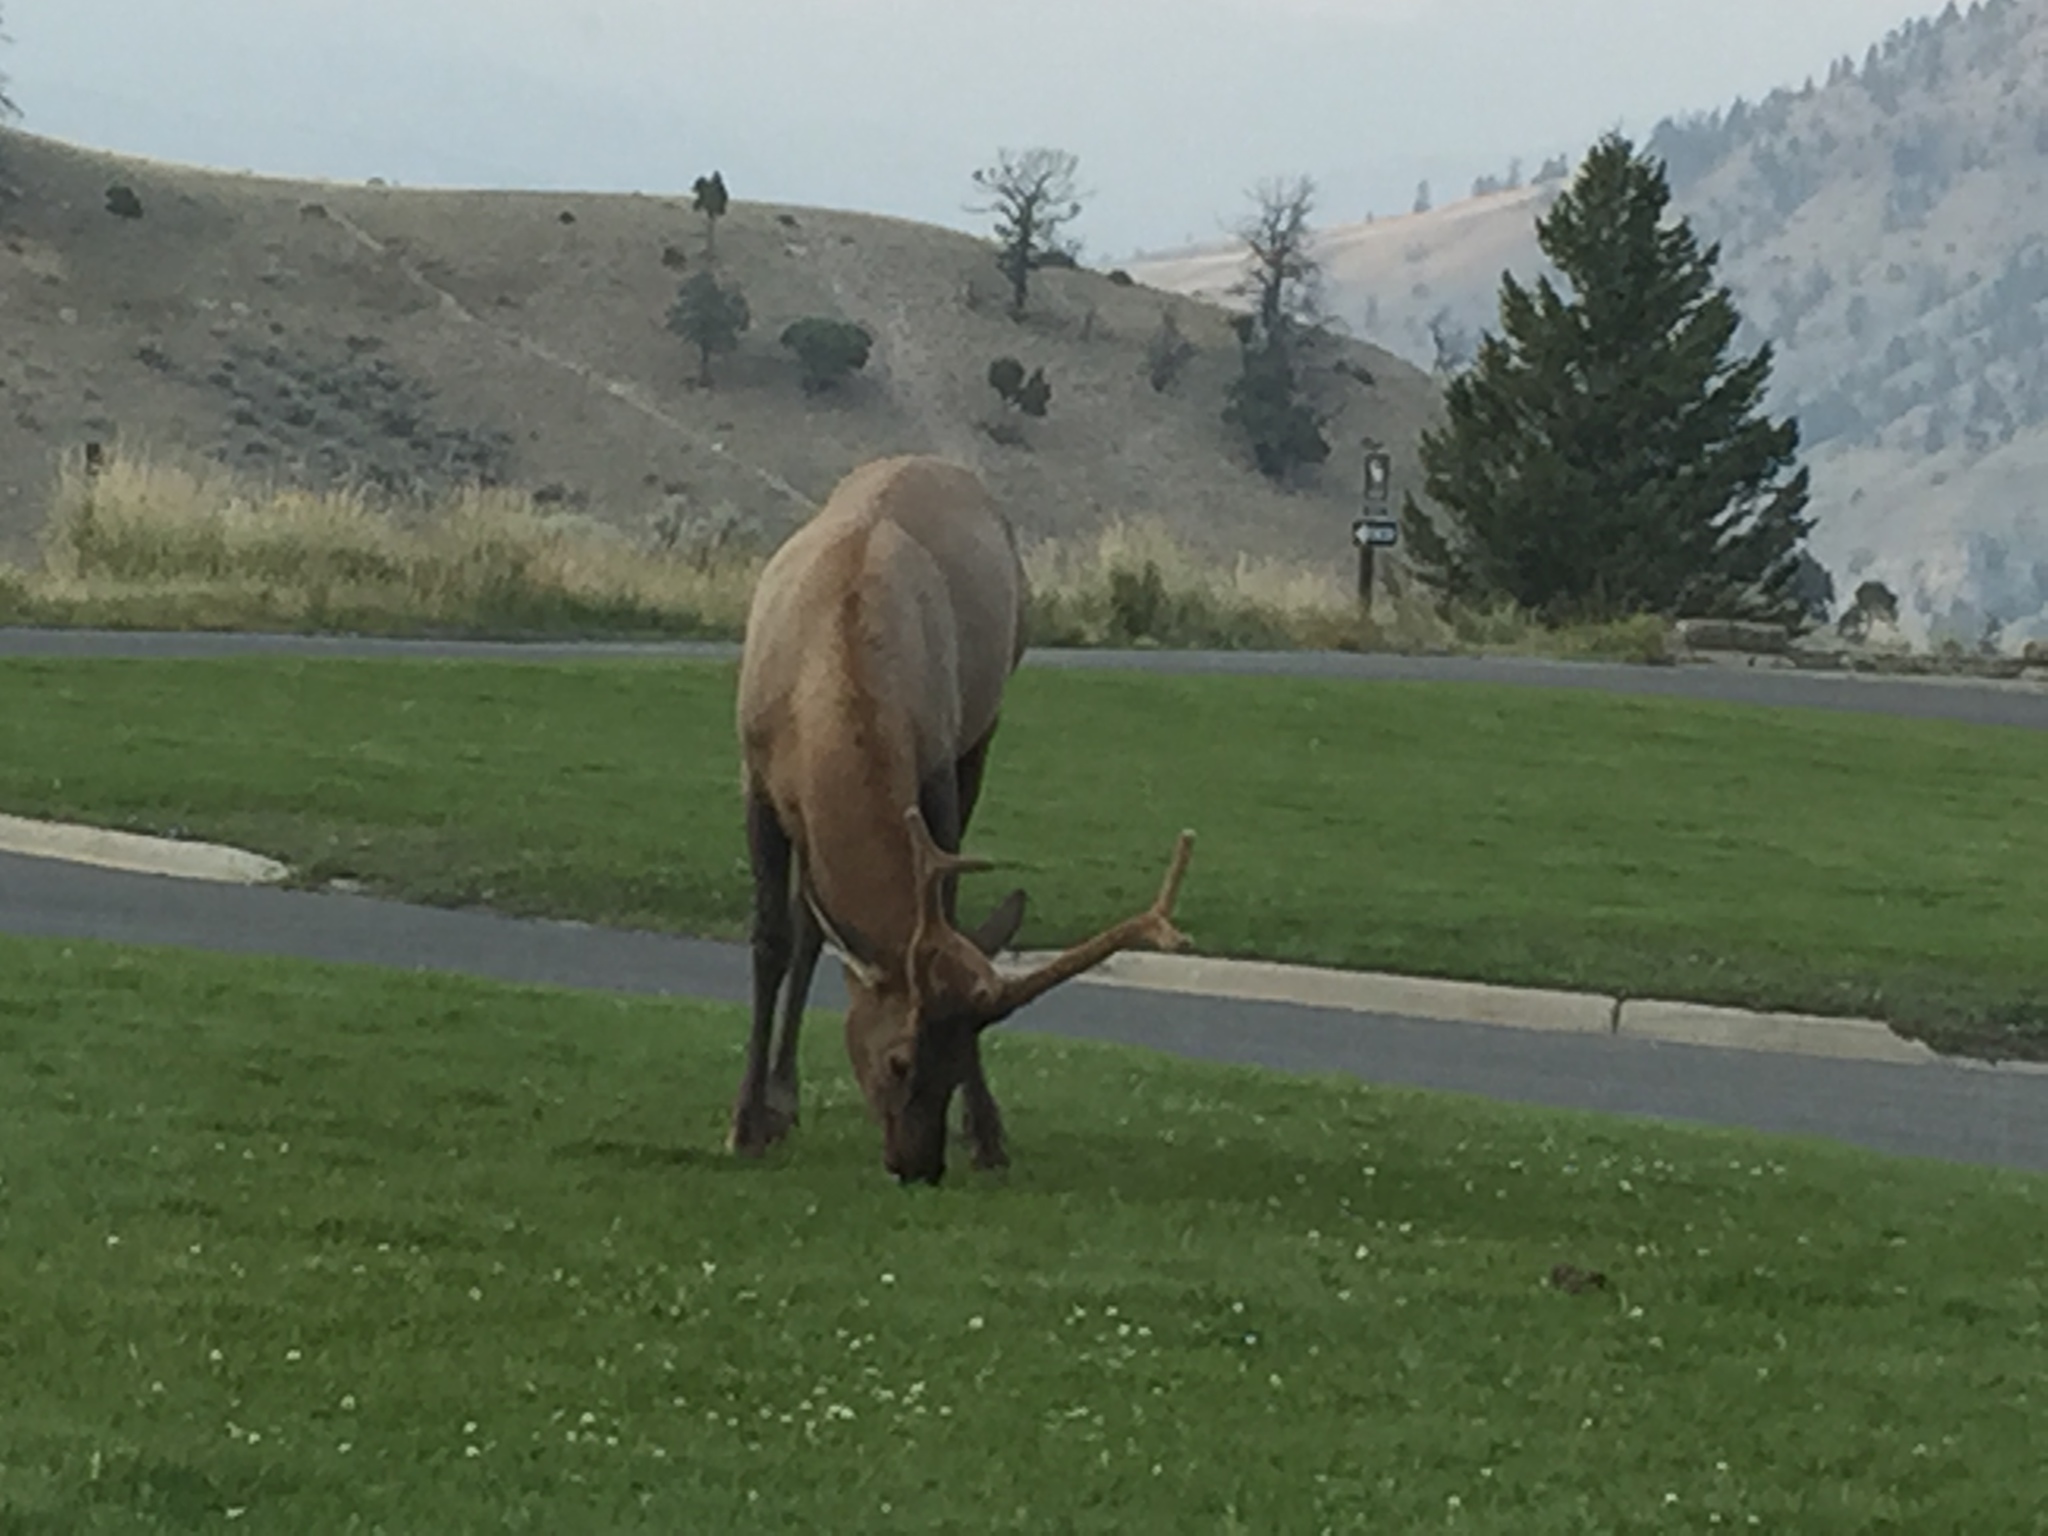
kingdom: Animalia
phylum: Chordata
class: Mammalia
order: Artiodactyla
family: Cervidae
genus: Cervus
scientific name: Cervus elaphus
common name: Red deer
